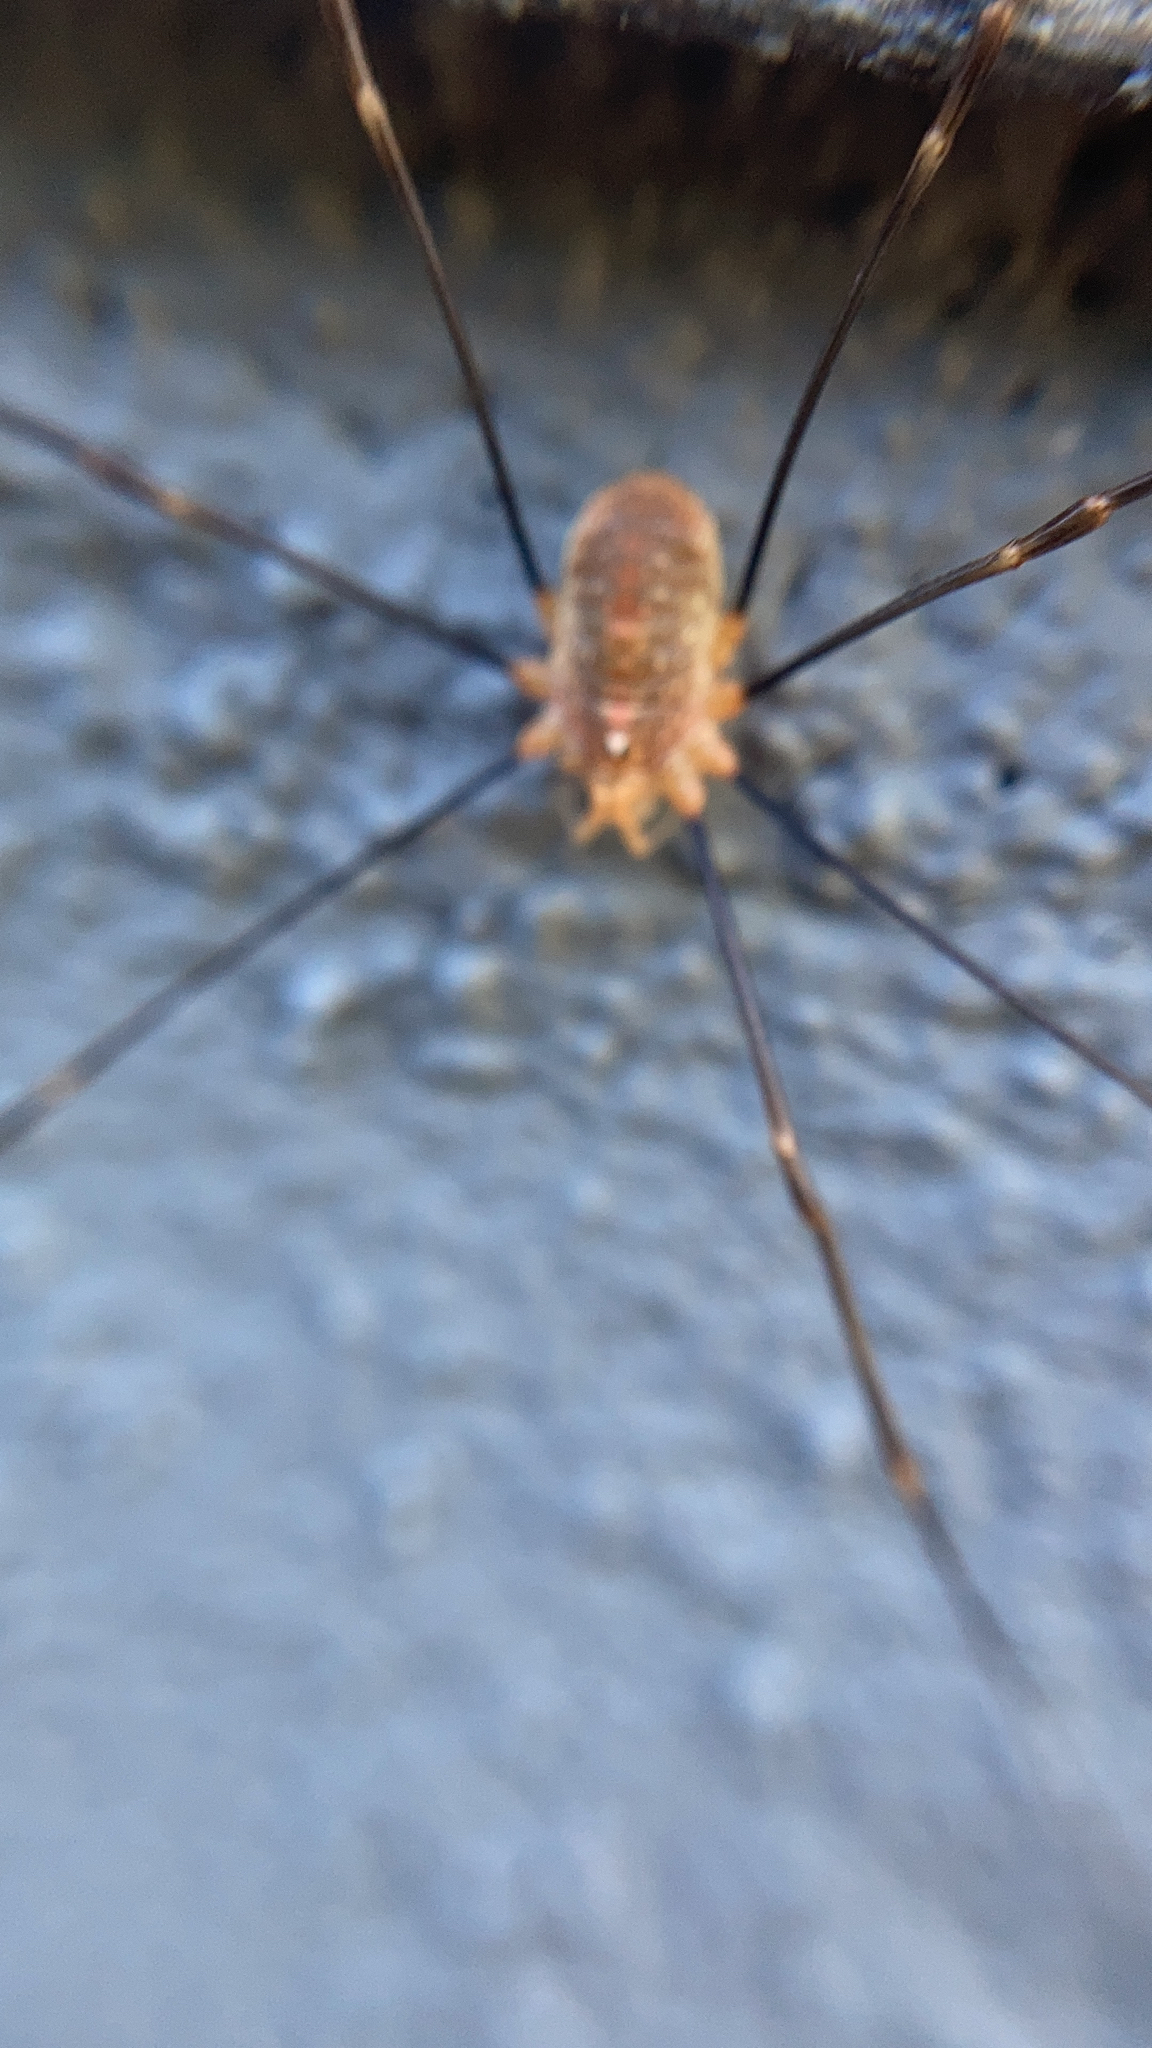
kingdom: Animalia
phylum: Arthropoda
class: Arachnida
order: Opiliones
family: Phalangiidae
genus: Opilio
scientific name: Opilio canestrinii
